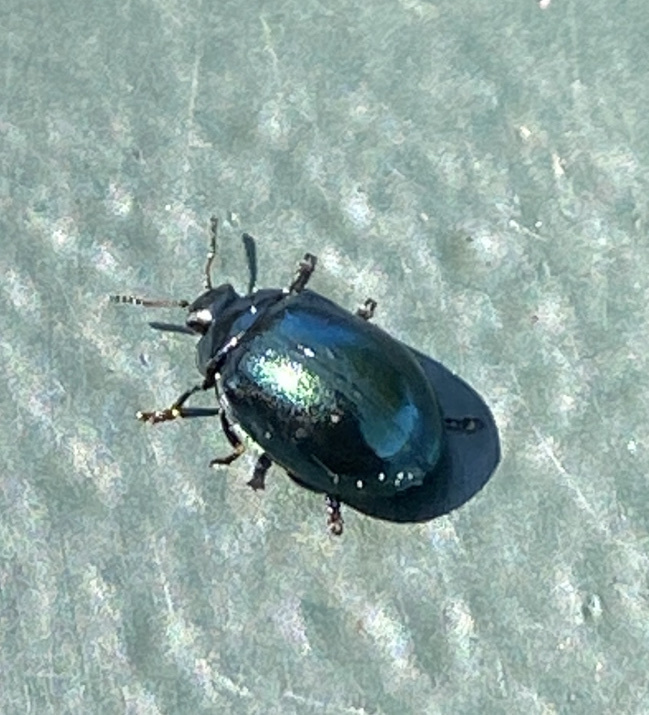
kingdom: Animalia
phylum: Arthropoda
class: Insecta
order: Coleoptera
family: Chrysomelidae
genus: Plagiodera
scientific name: Plagiodera versicolora
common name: Imported willow leaf beetle
